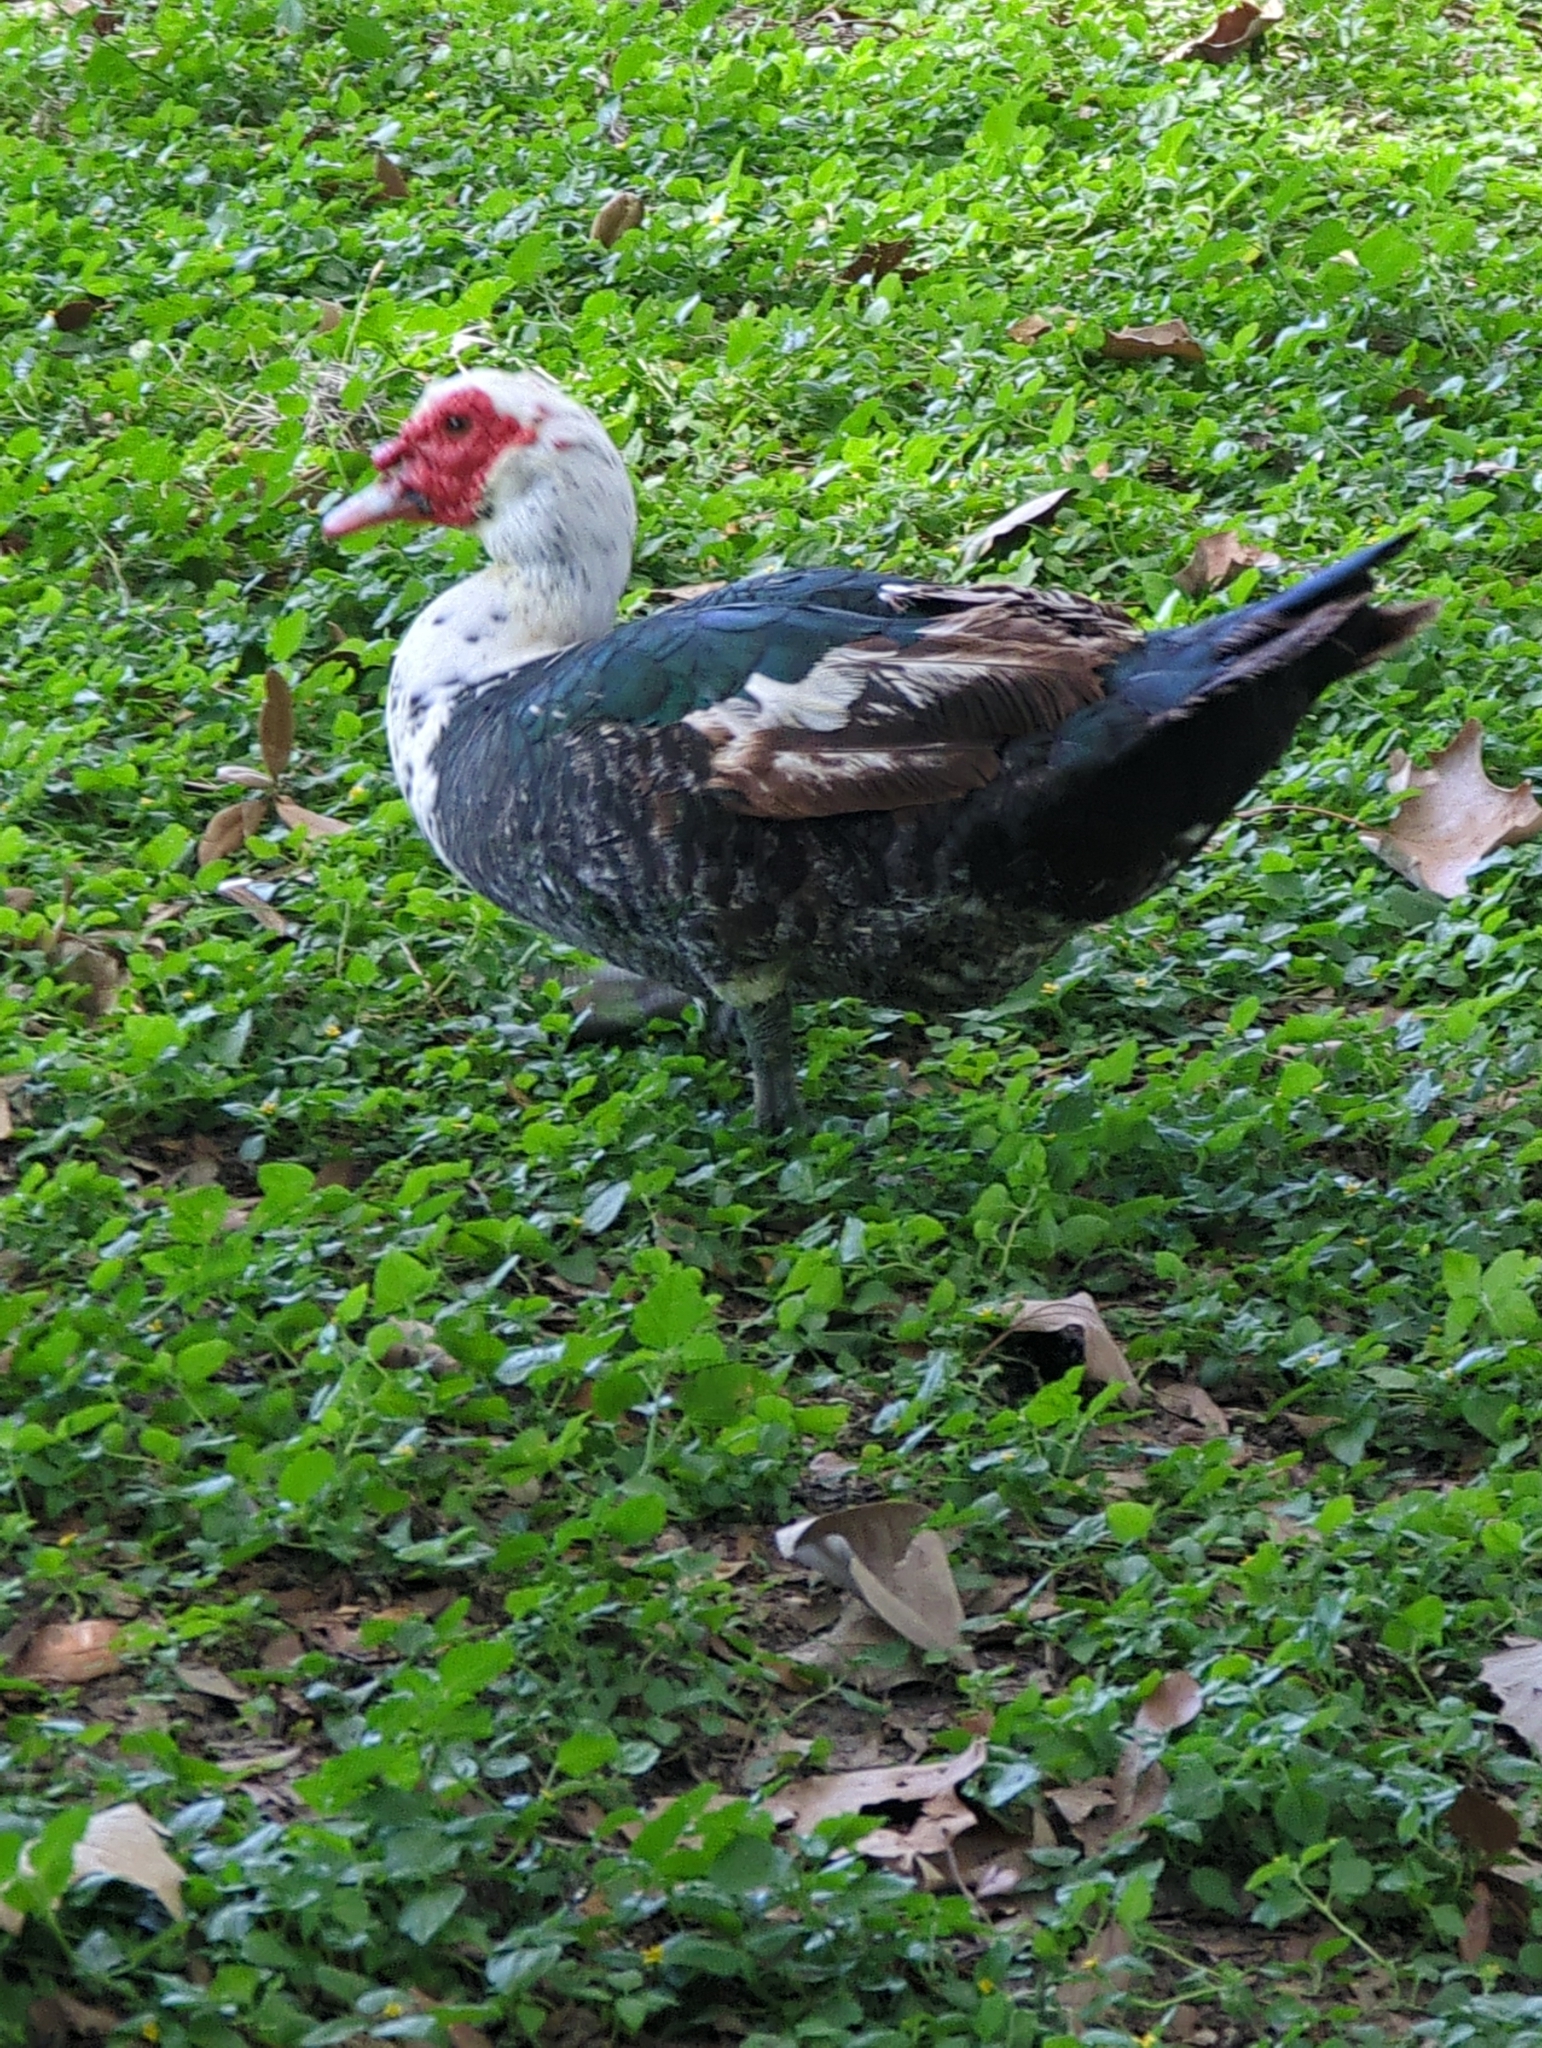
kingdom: Animalia
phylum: Chordata
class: Aves
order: Anseriformes
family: Anatidae
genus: Cairina
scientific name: Cairina moschata
